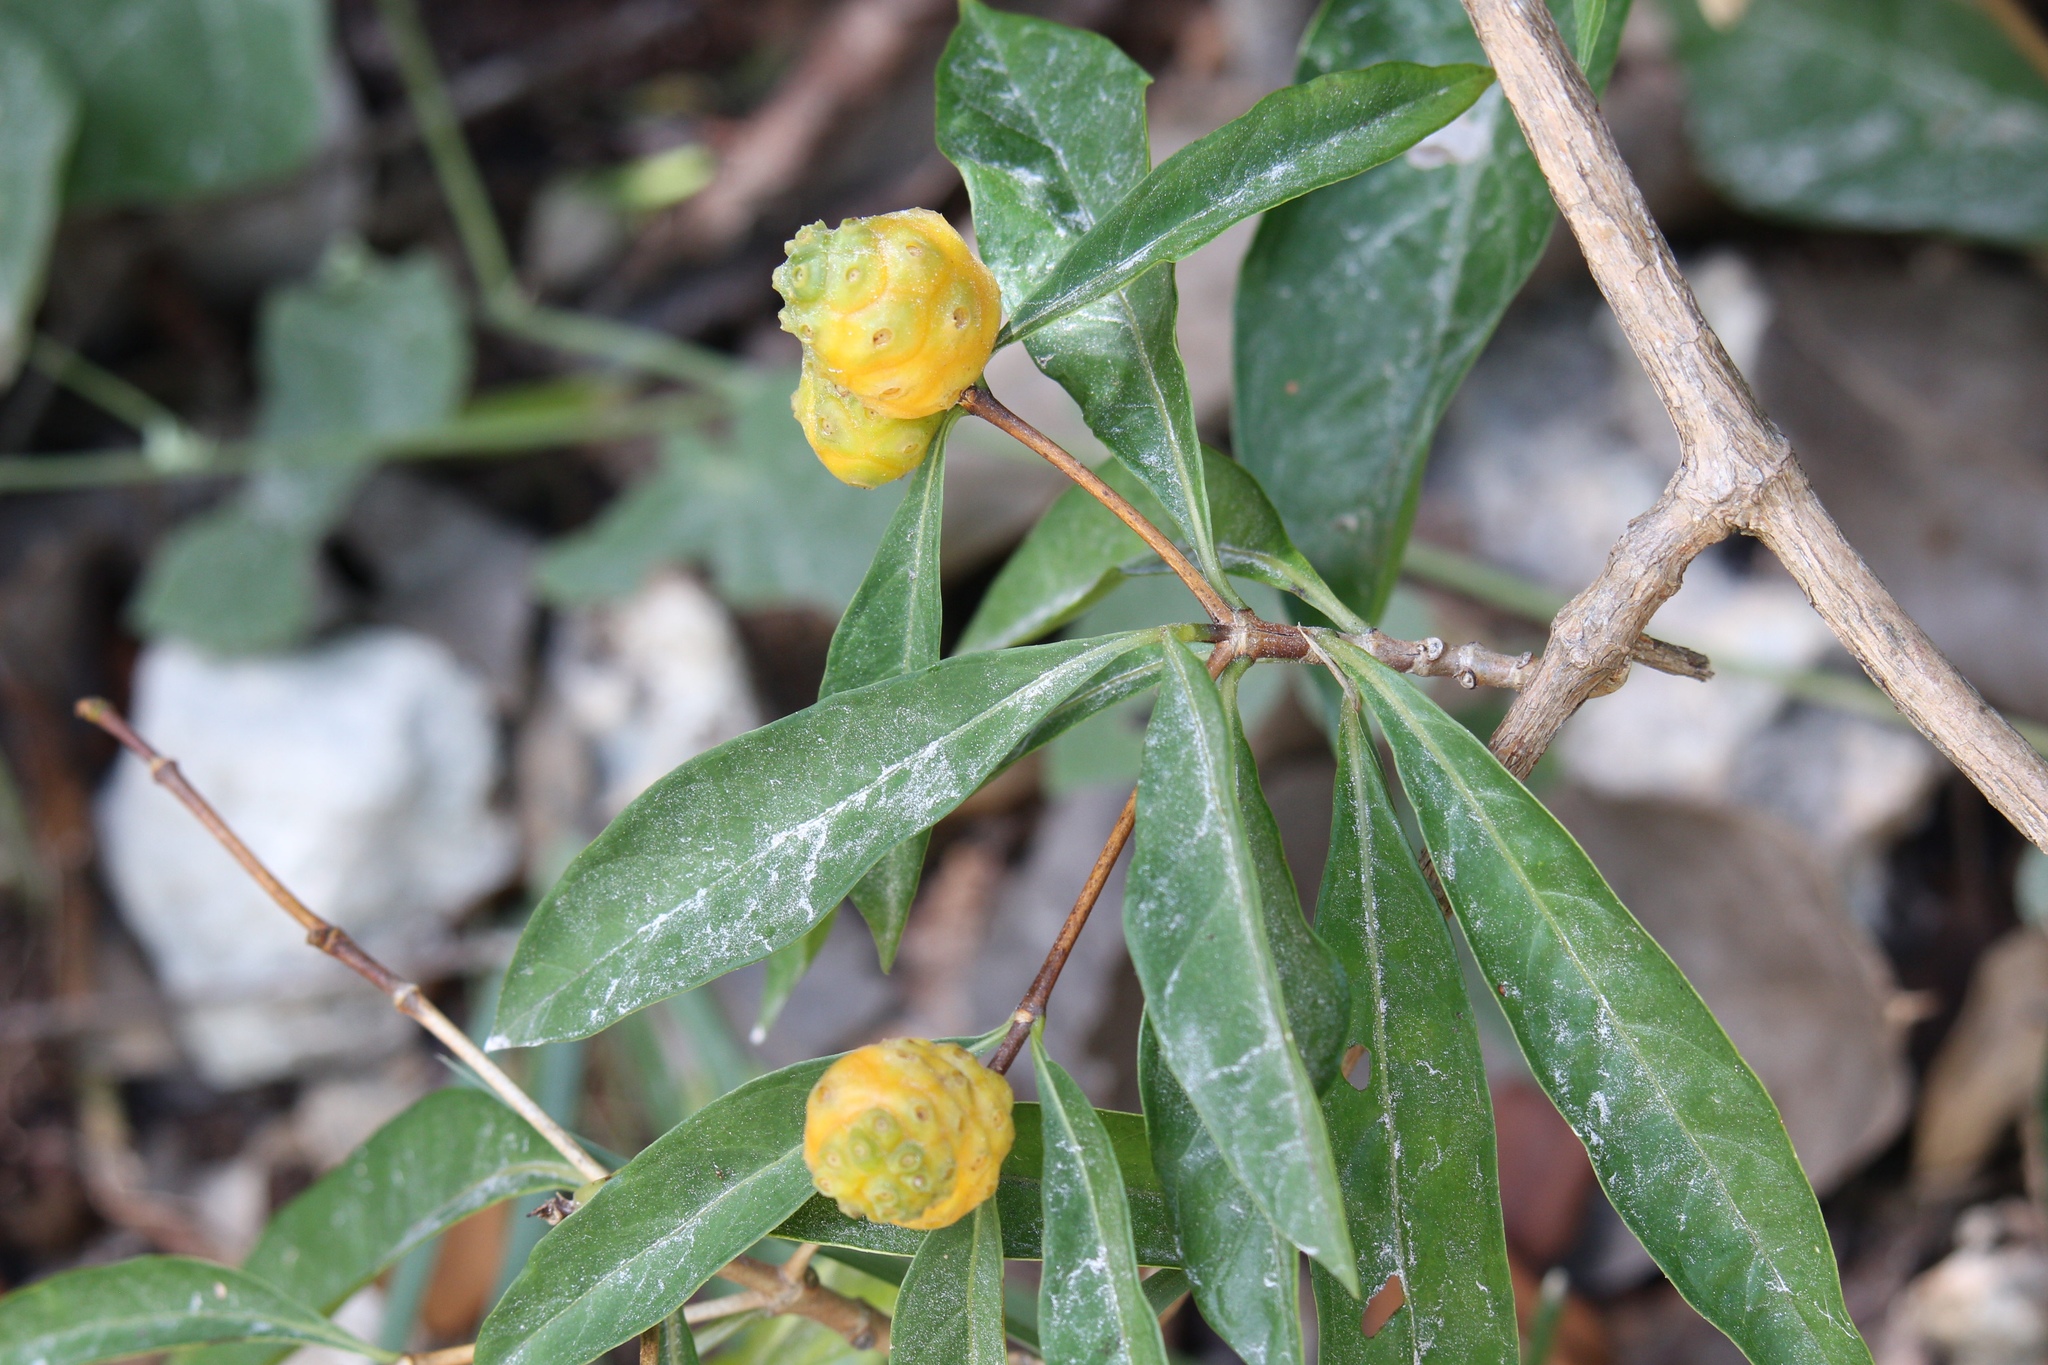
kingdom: Plantae
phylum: Tracheophyta
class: Magnoliopsida
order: Gentianales
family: Rubiaceae
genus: Morinda
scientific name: Morinda royoc
